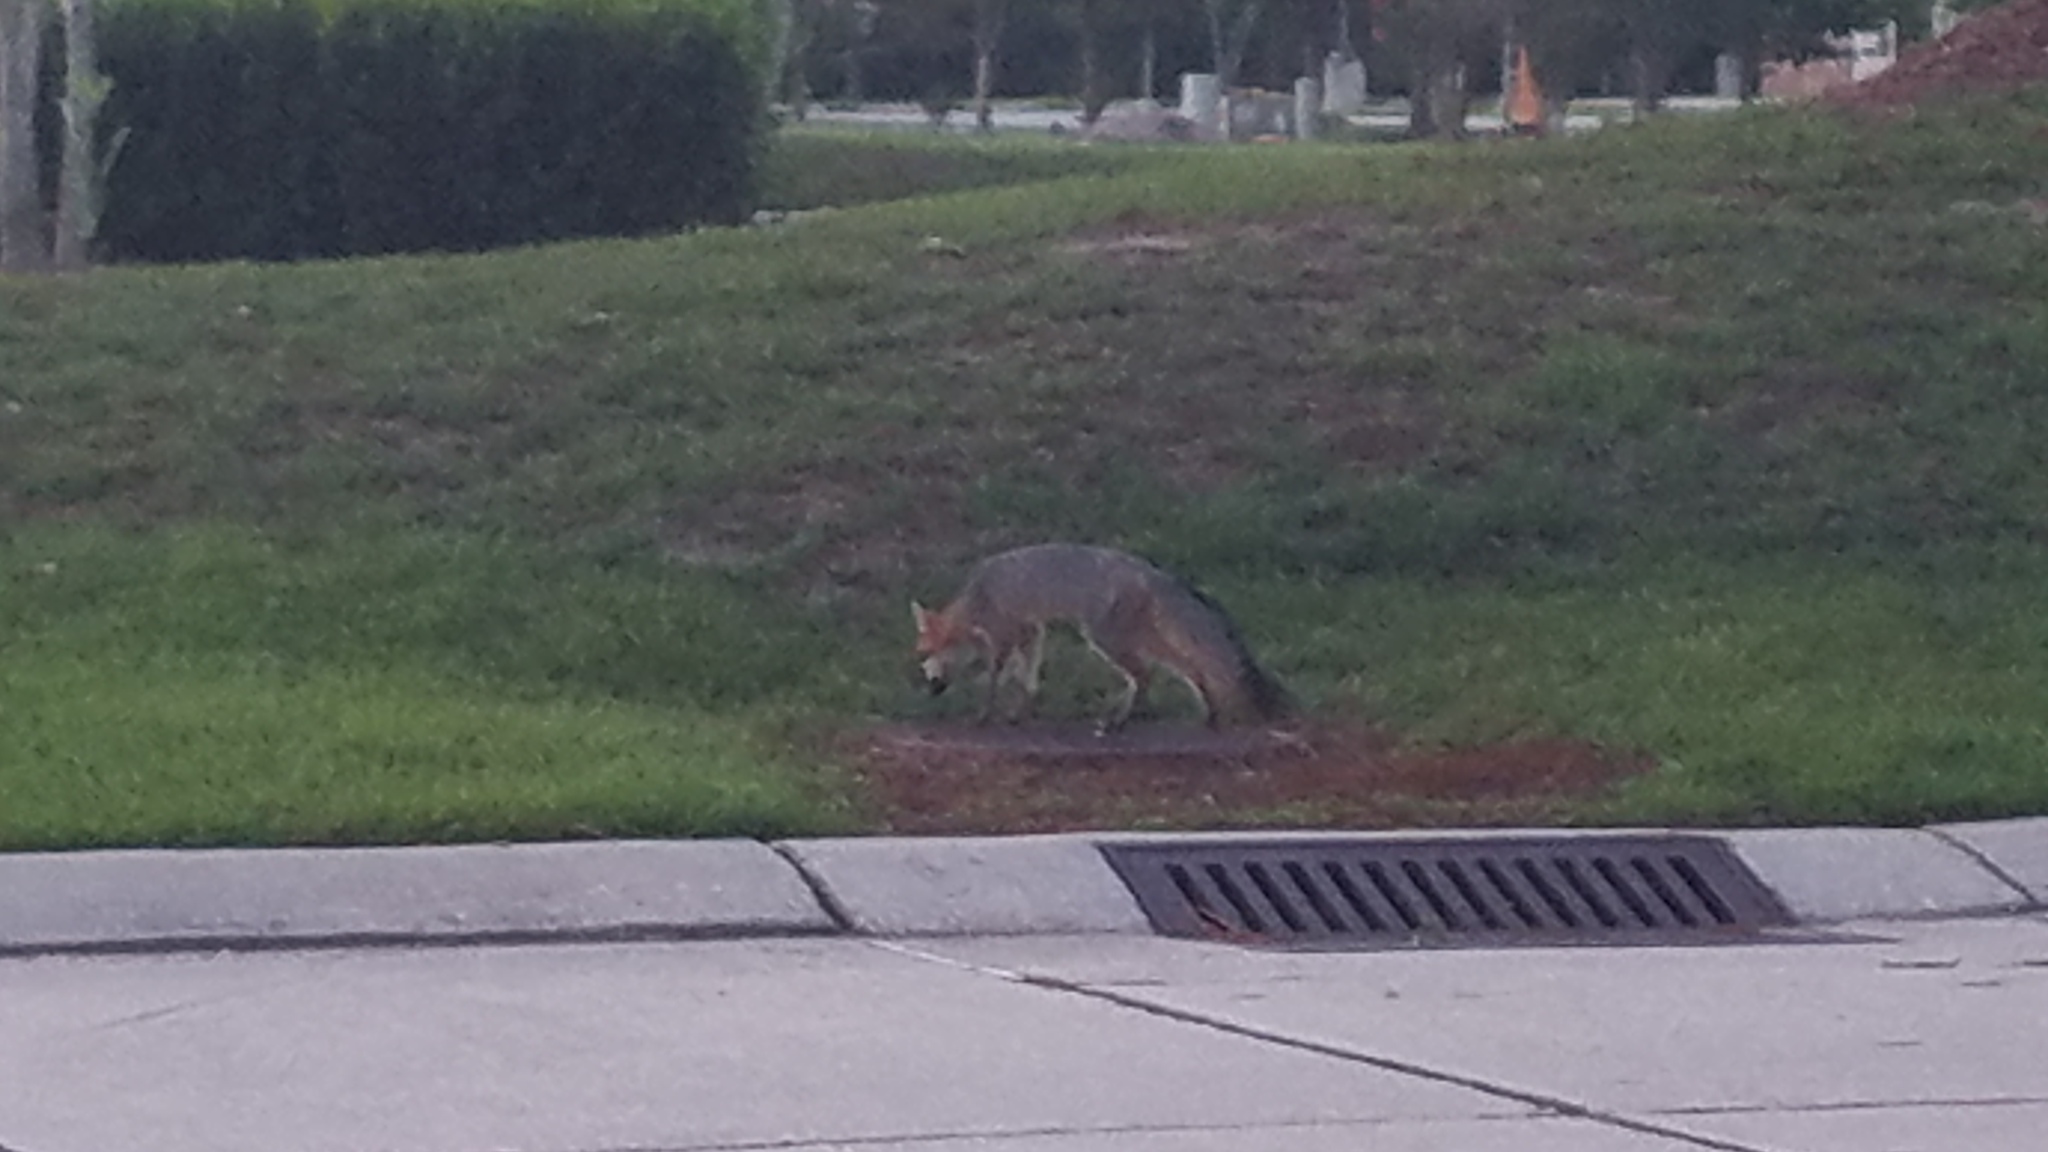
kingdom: Animalia
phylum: Chordata
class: Mammalia
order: Carnivora
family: Canidae
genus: Urocyon
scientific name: Urocyon cinereoargenteus
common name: Gray fox
